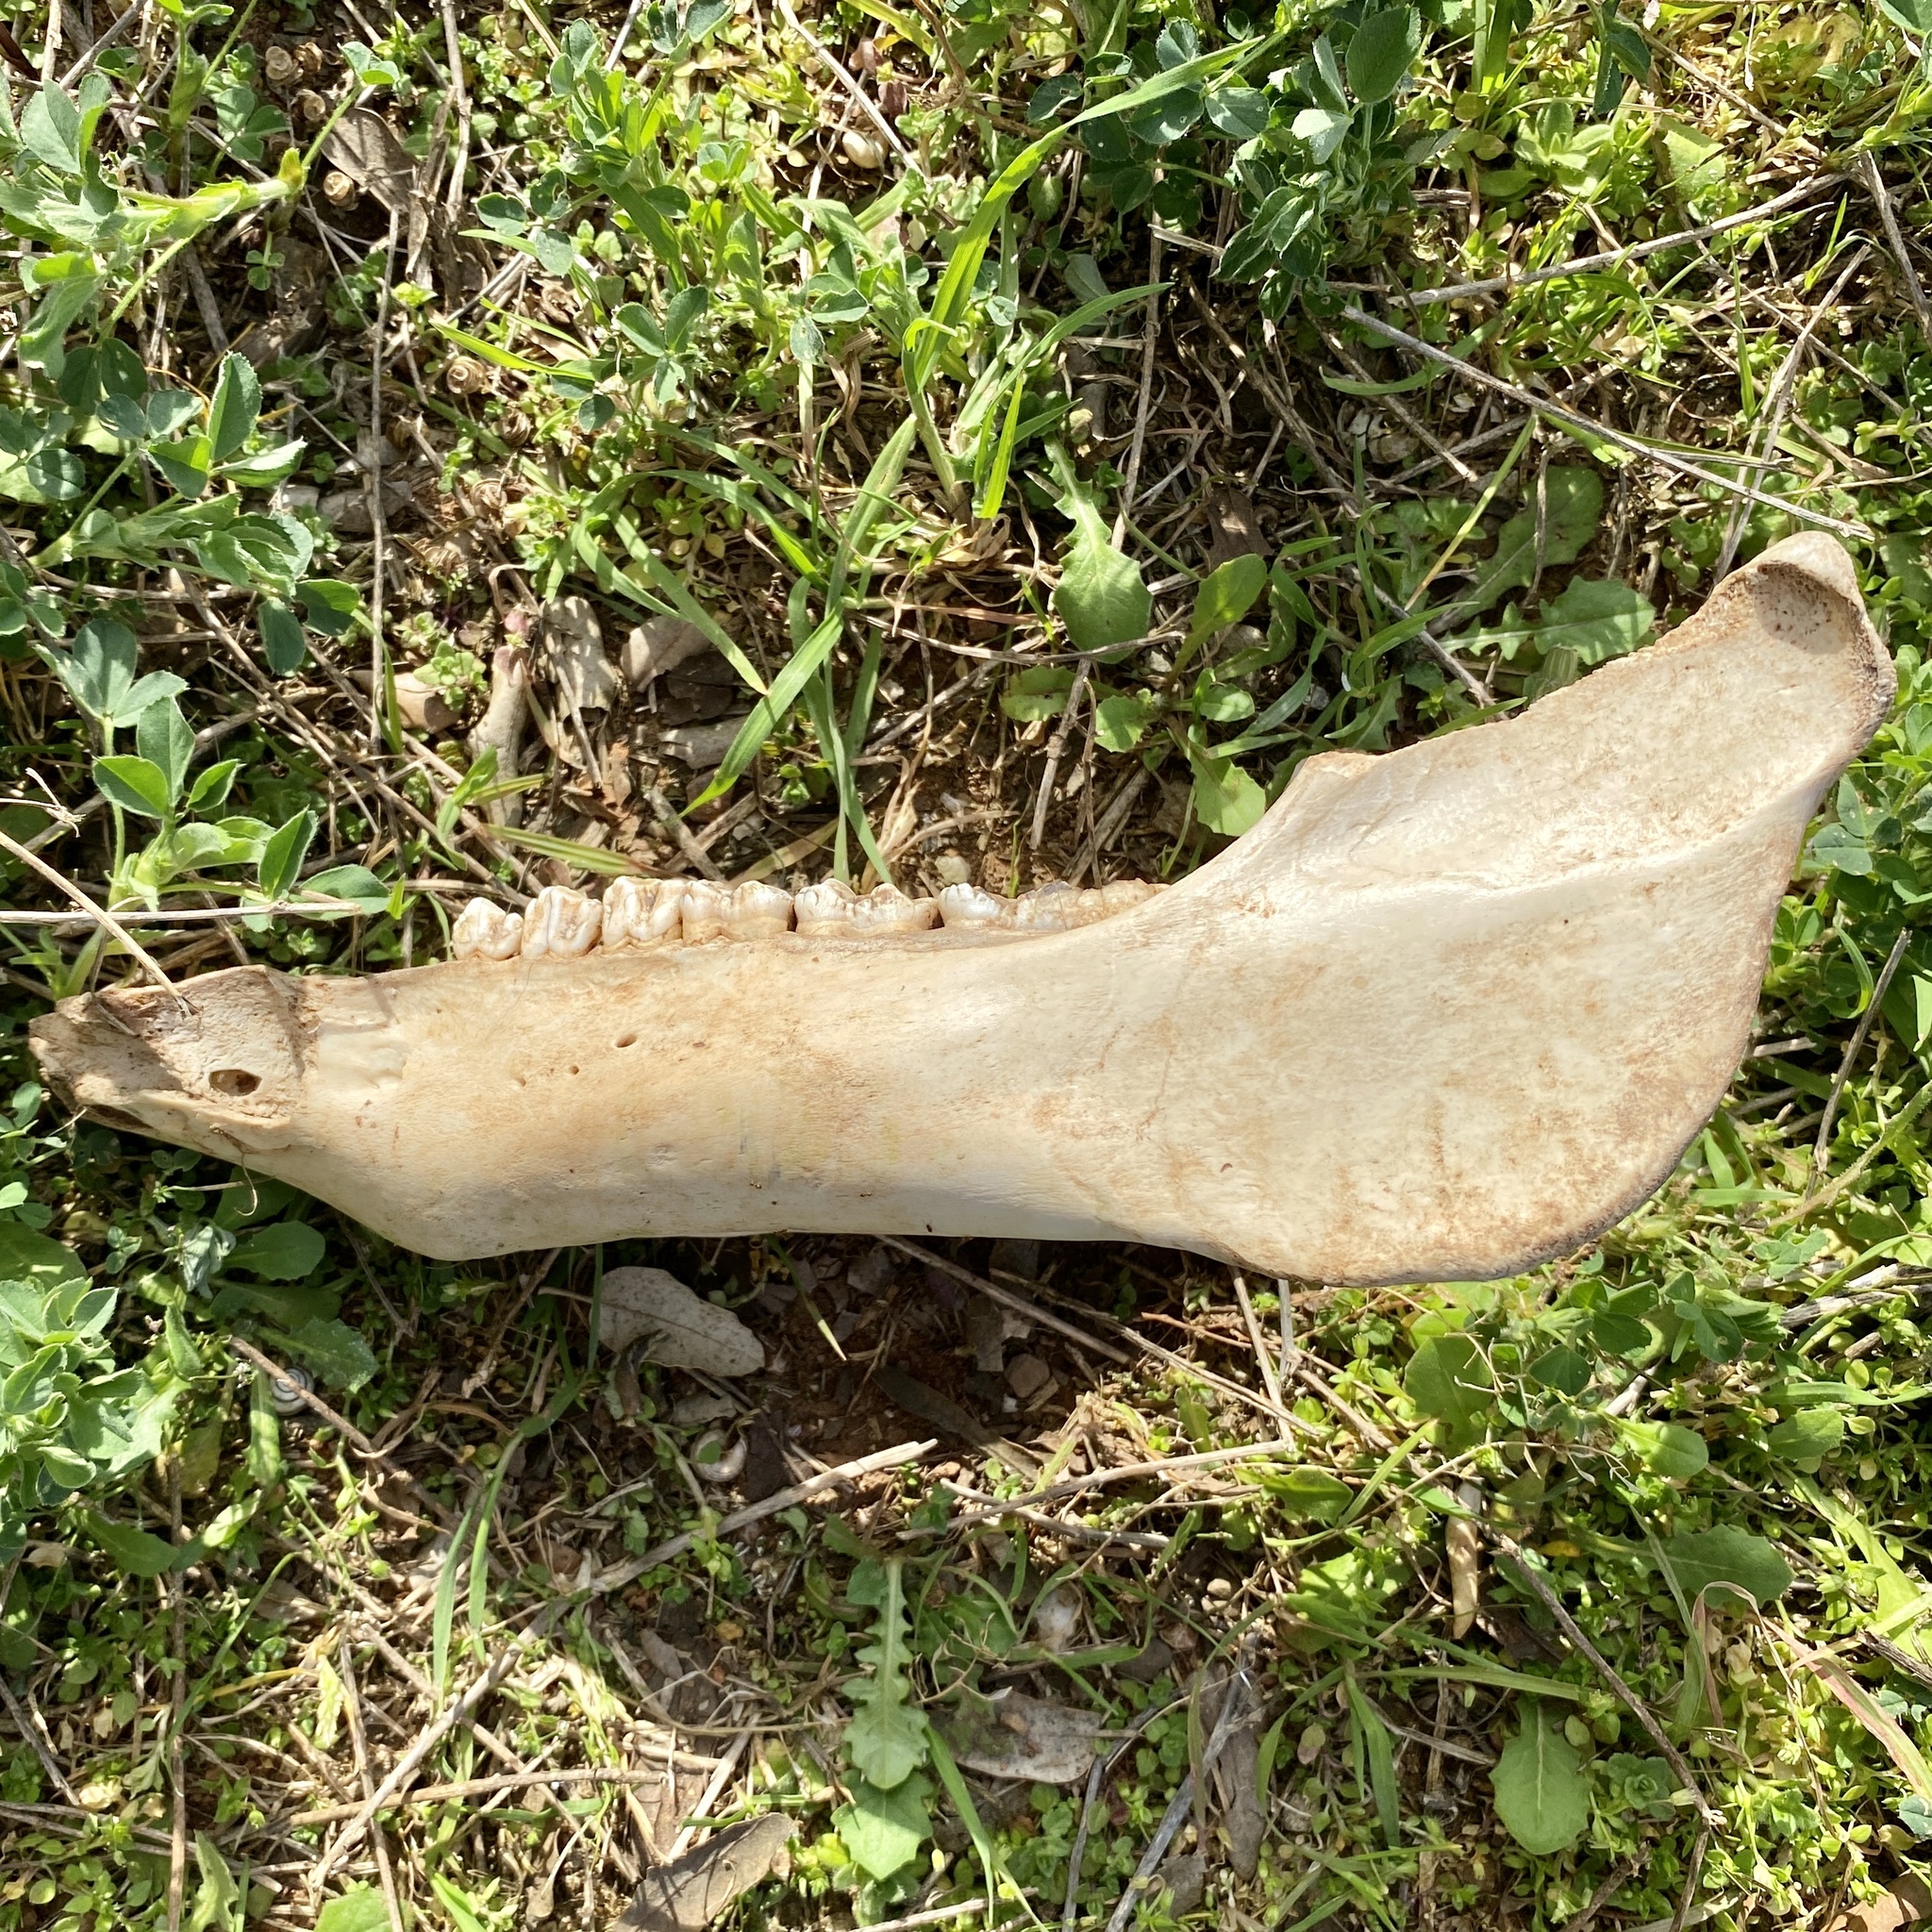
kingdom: Animalia
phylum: Chordata
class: Mammalia
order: Artiodactyla
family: Suidae
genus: Sus
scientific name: Sus scrofa
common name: Wild boar
